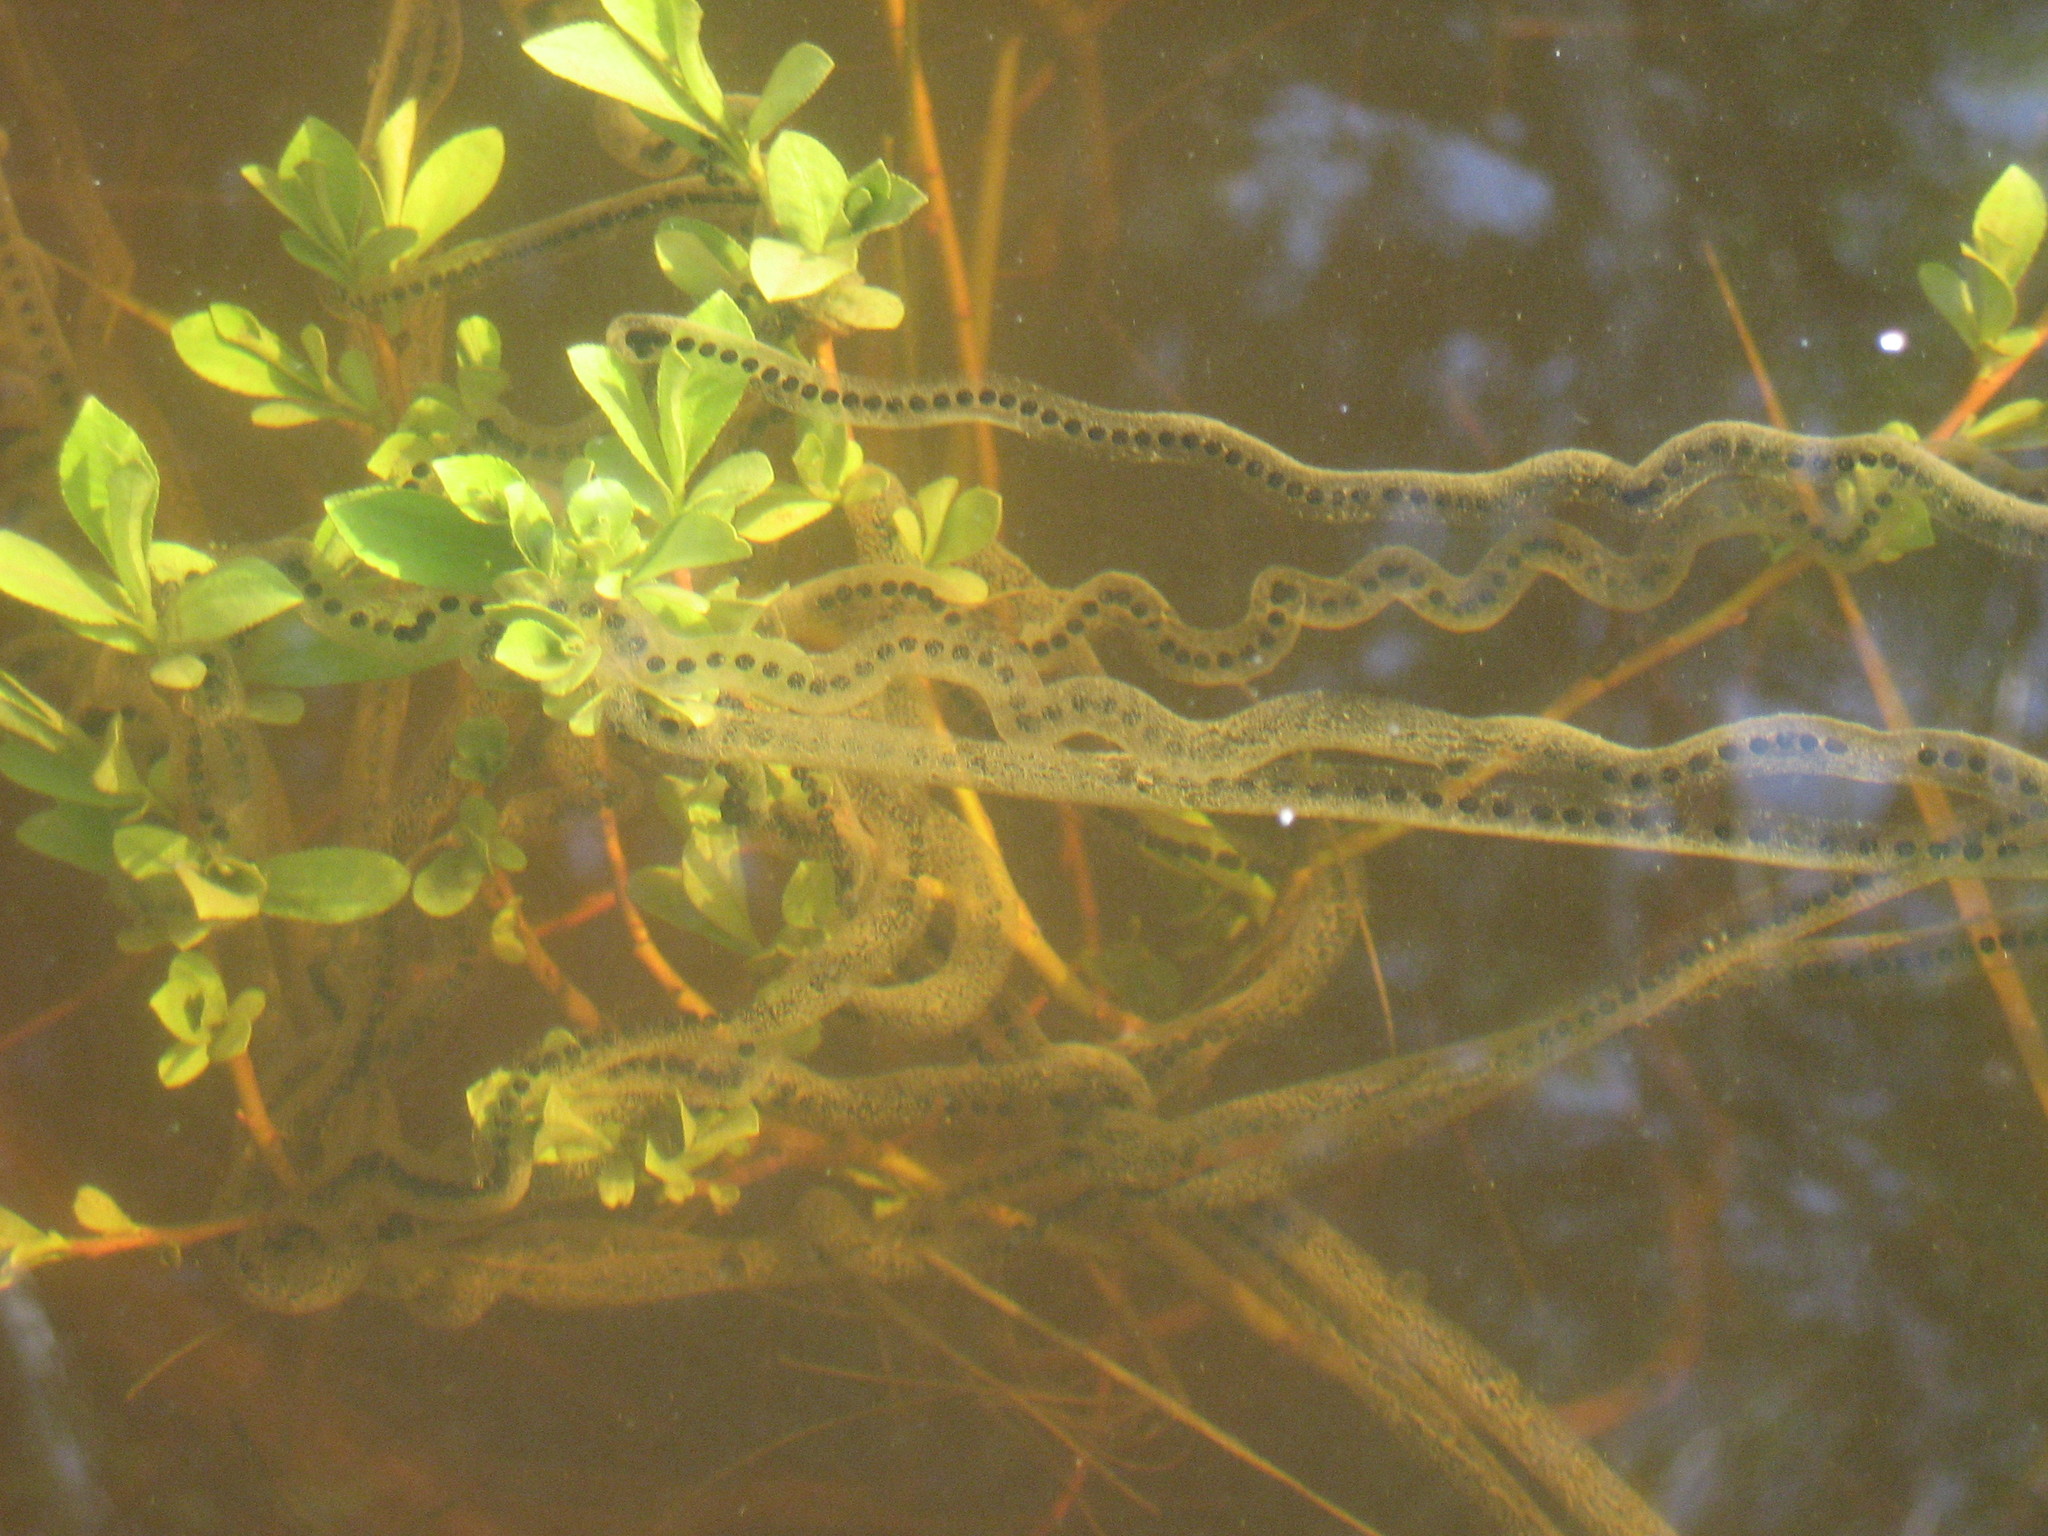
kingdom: Animalia
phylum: Chordata
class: Amphibia
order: Anura
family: Bufonidae
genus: Anaxyrus
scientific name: Anaxyrus americanus
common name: American toad
